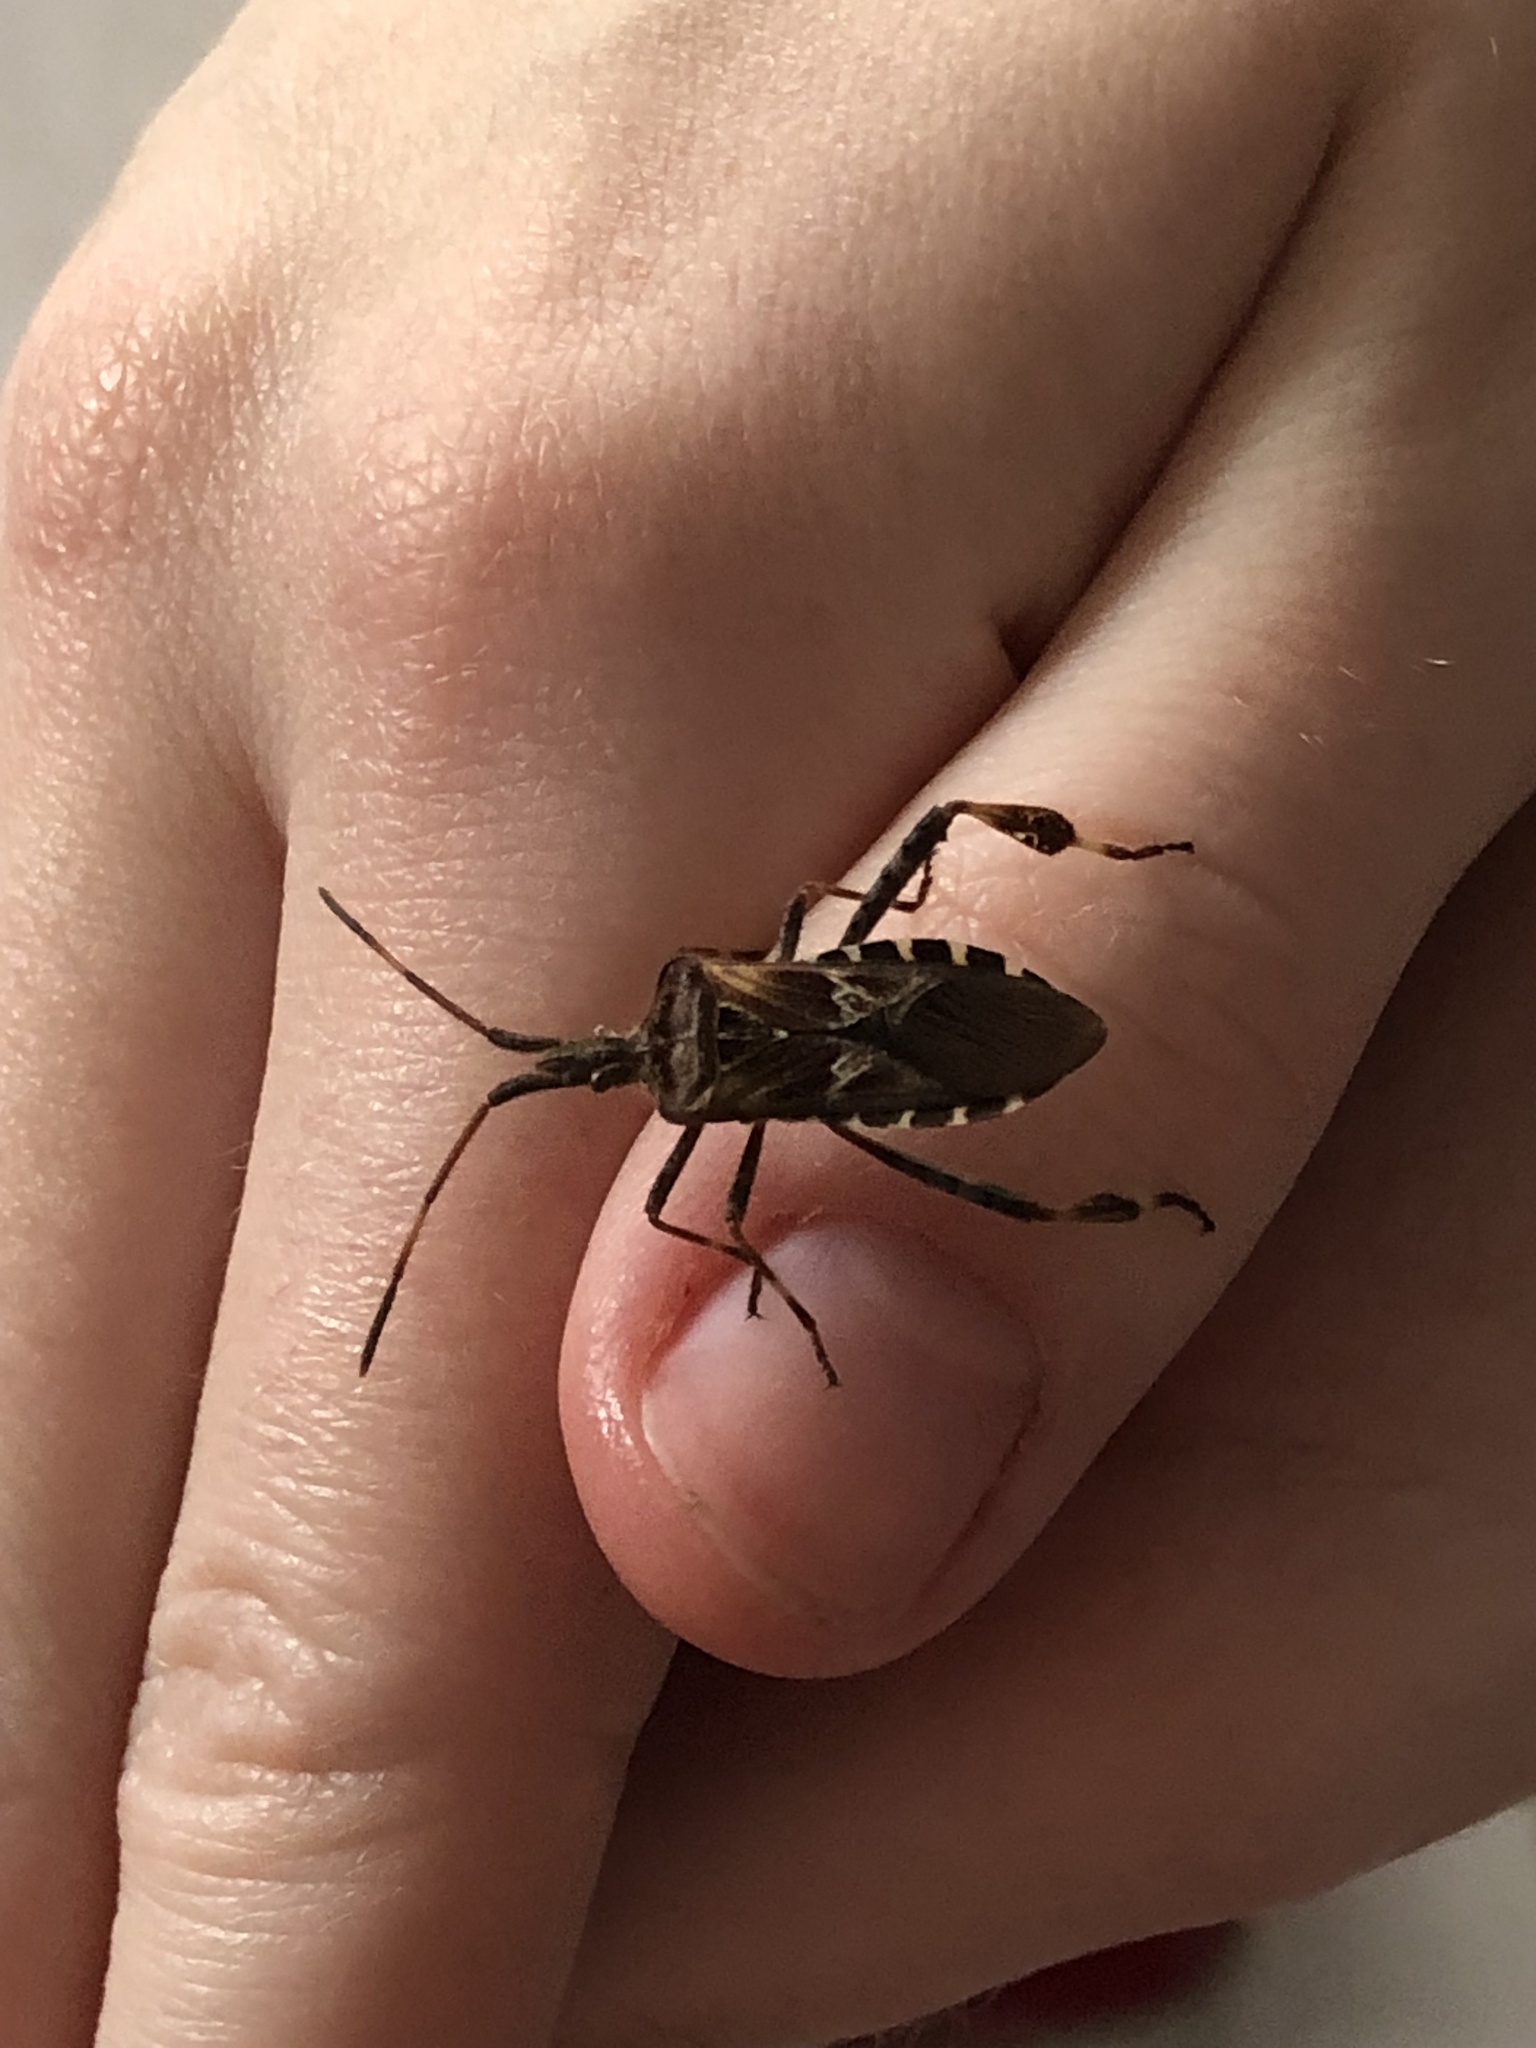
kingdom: Animalia
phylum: Arthropoda
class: Insecta
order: Hemiptera
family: Coreidae
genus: Leptoglossus
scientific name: Leptoglossus occidentalis
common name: Western conifer-seed bug
